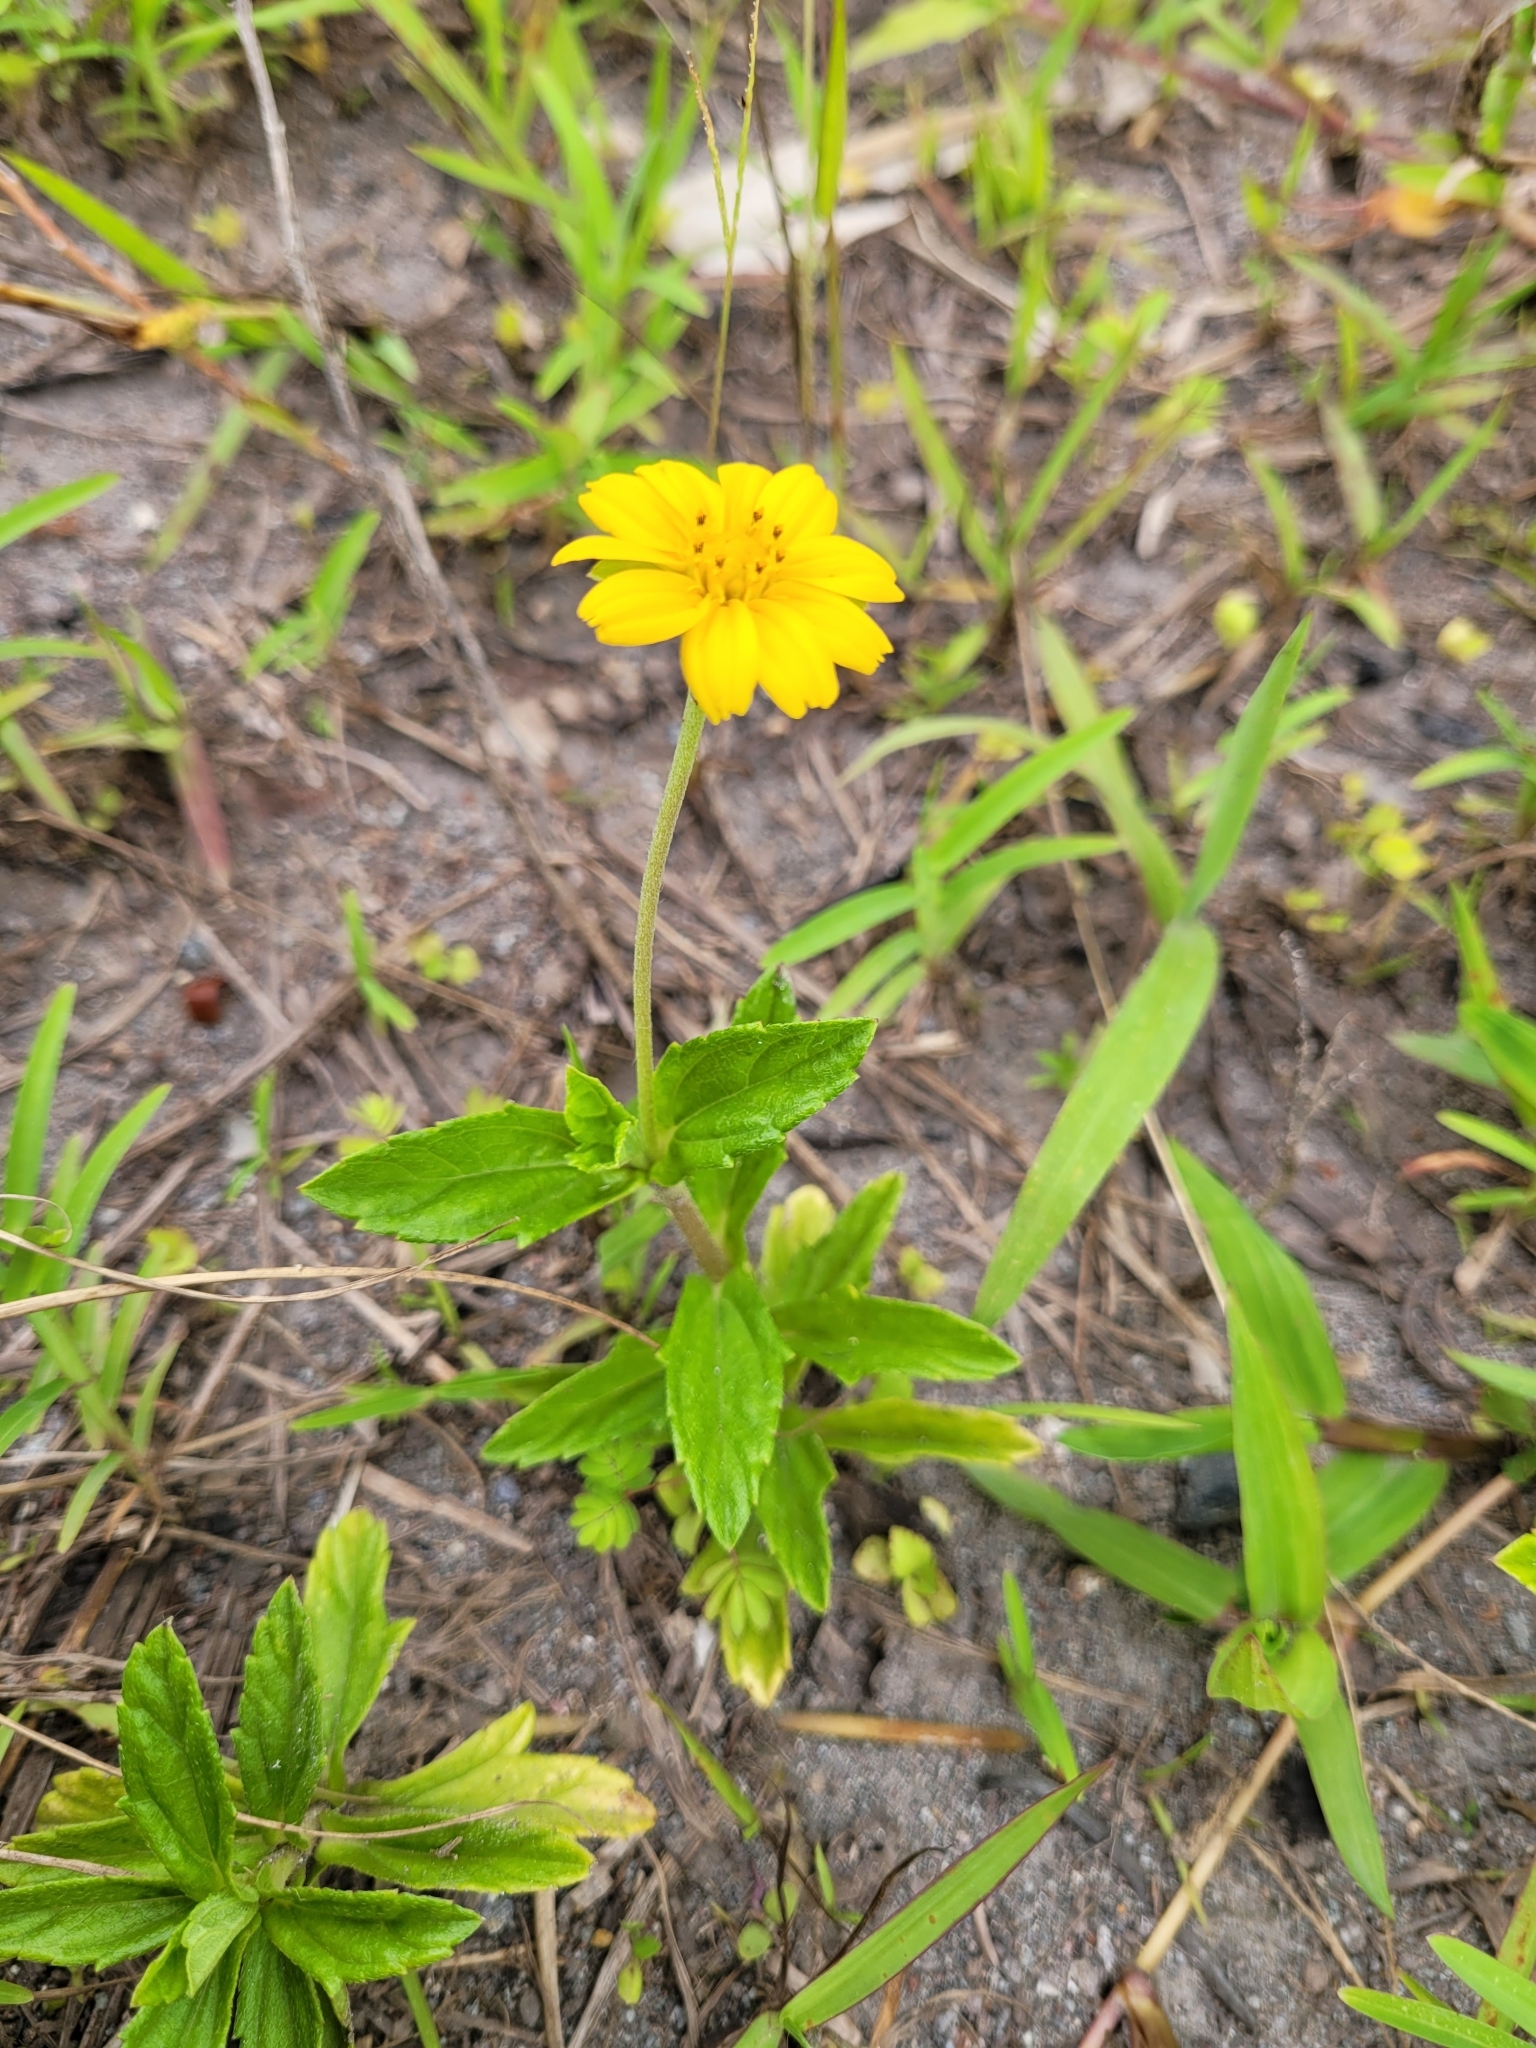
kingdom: Plantae
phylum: Tracheophyta
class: Magnoliopsida
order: Asterales
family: Asteraceae
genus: Sphagneticola
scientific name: Sphagneticola trilobata
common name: Bay biscayne creeping-oxeye
